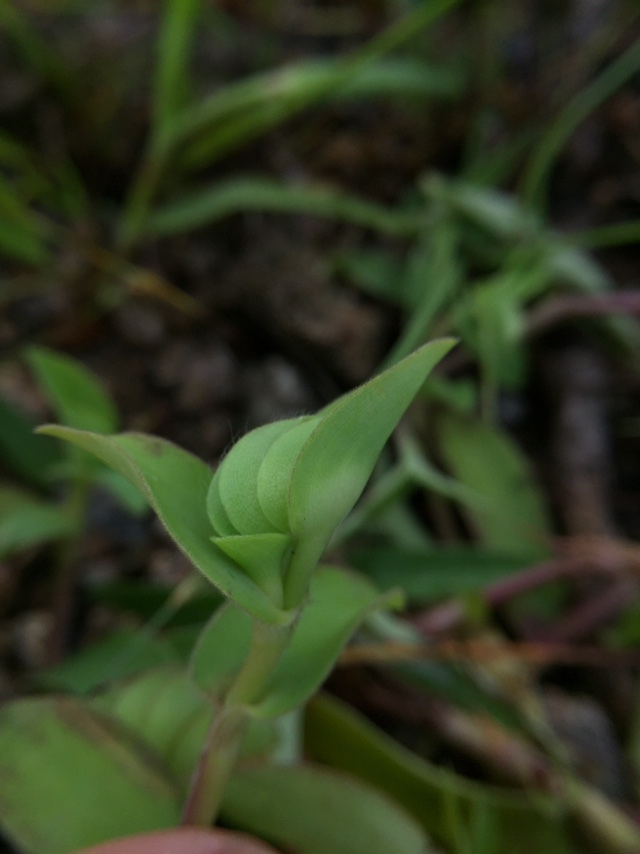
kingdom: Plantae
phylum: Tracheophyta
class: Liliopsida
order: Commelinales
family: Commelinaceae
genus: Cyanotis
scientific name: Cyanotis cristata
